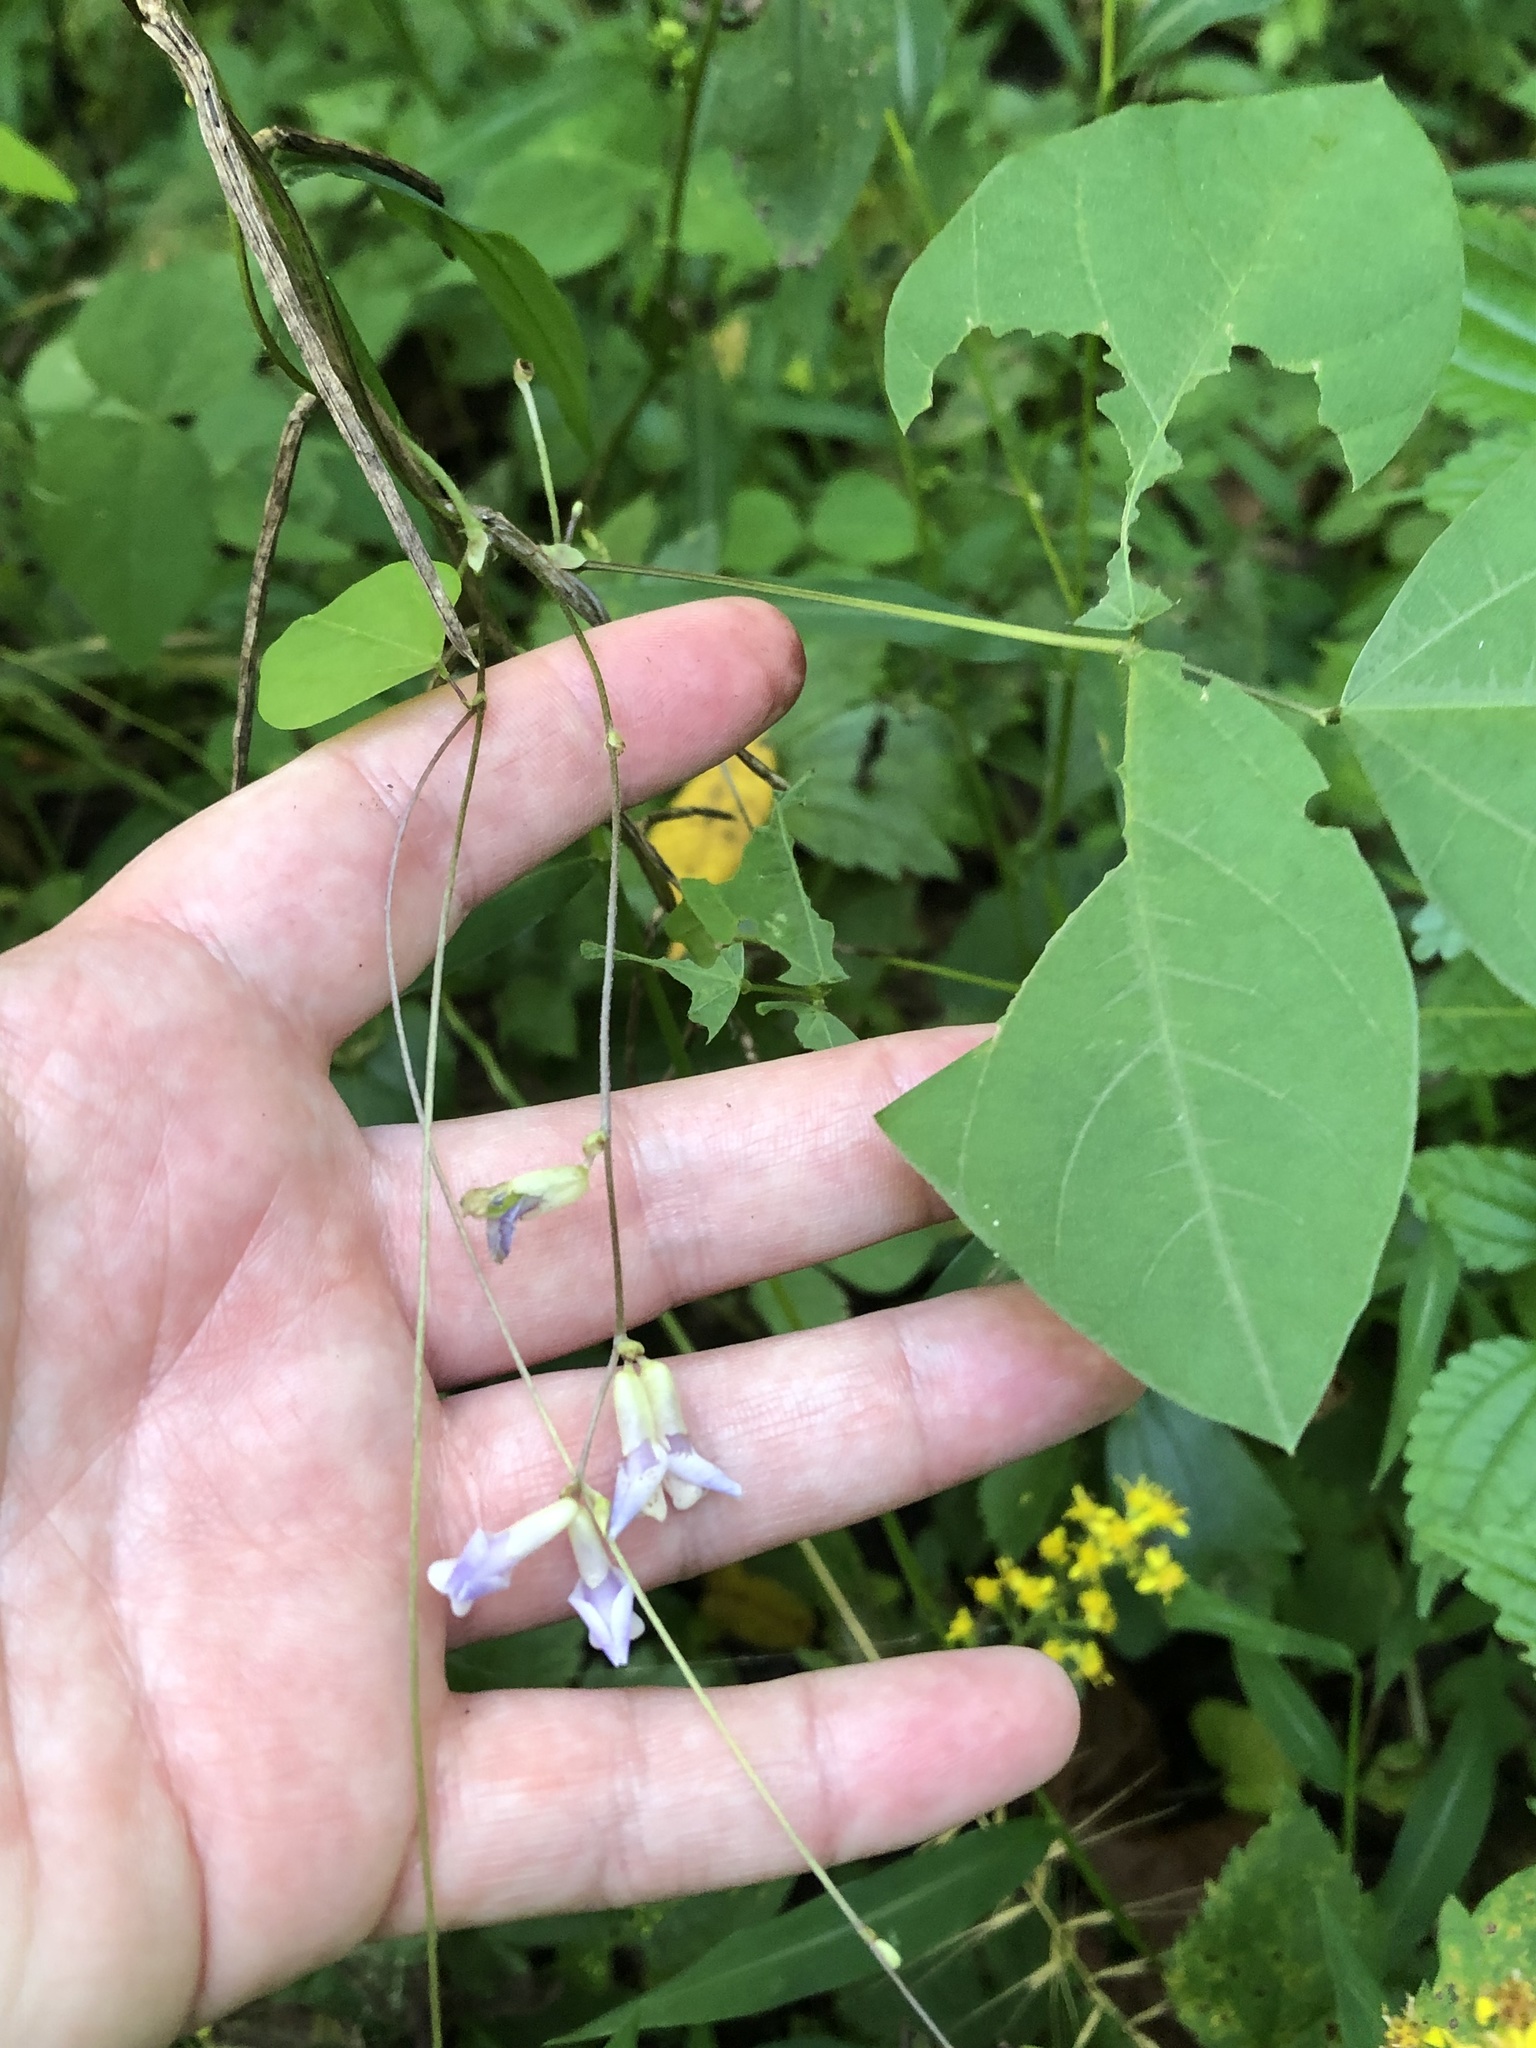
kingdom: Plantae
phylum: Tracheophyta
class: Magnoliopsida
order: Fabales
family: Fabaceae
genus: Amphicarpaea
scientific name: Amphicarpaea bracteata
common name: American hog peanut
